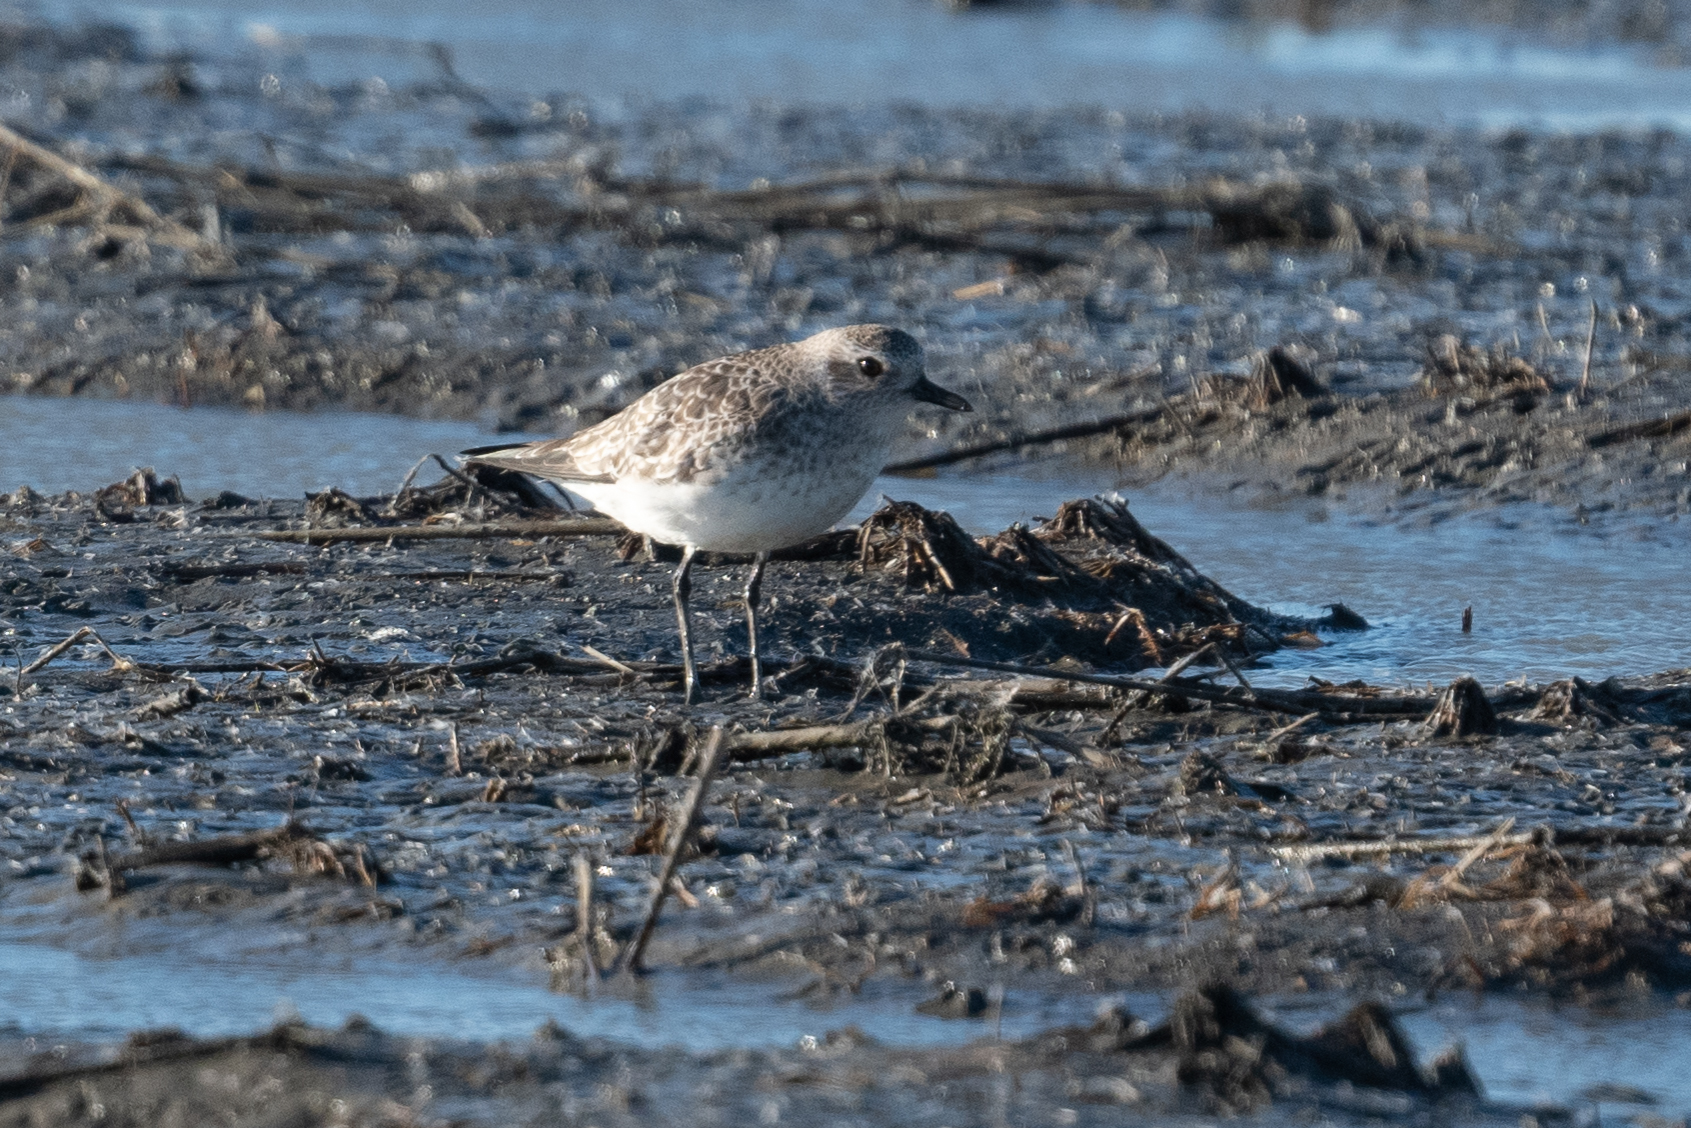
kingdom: Animalia
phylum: Chordata
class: Aves
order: Charadriiformes
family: Charadriidae
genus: Pluvialis
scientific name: Pluvialis squatarola
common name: Grey plover
